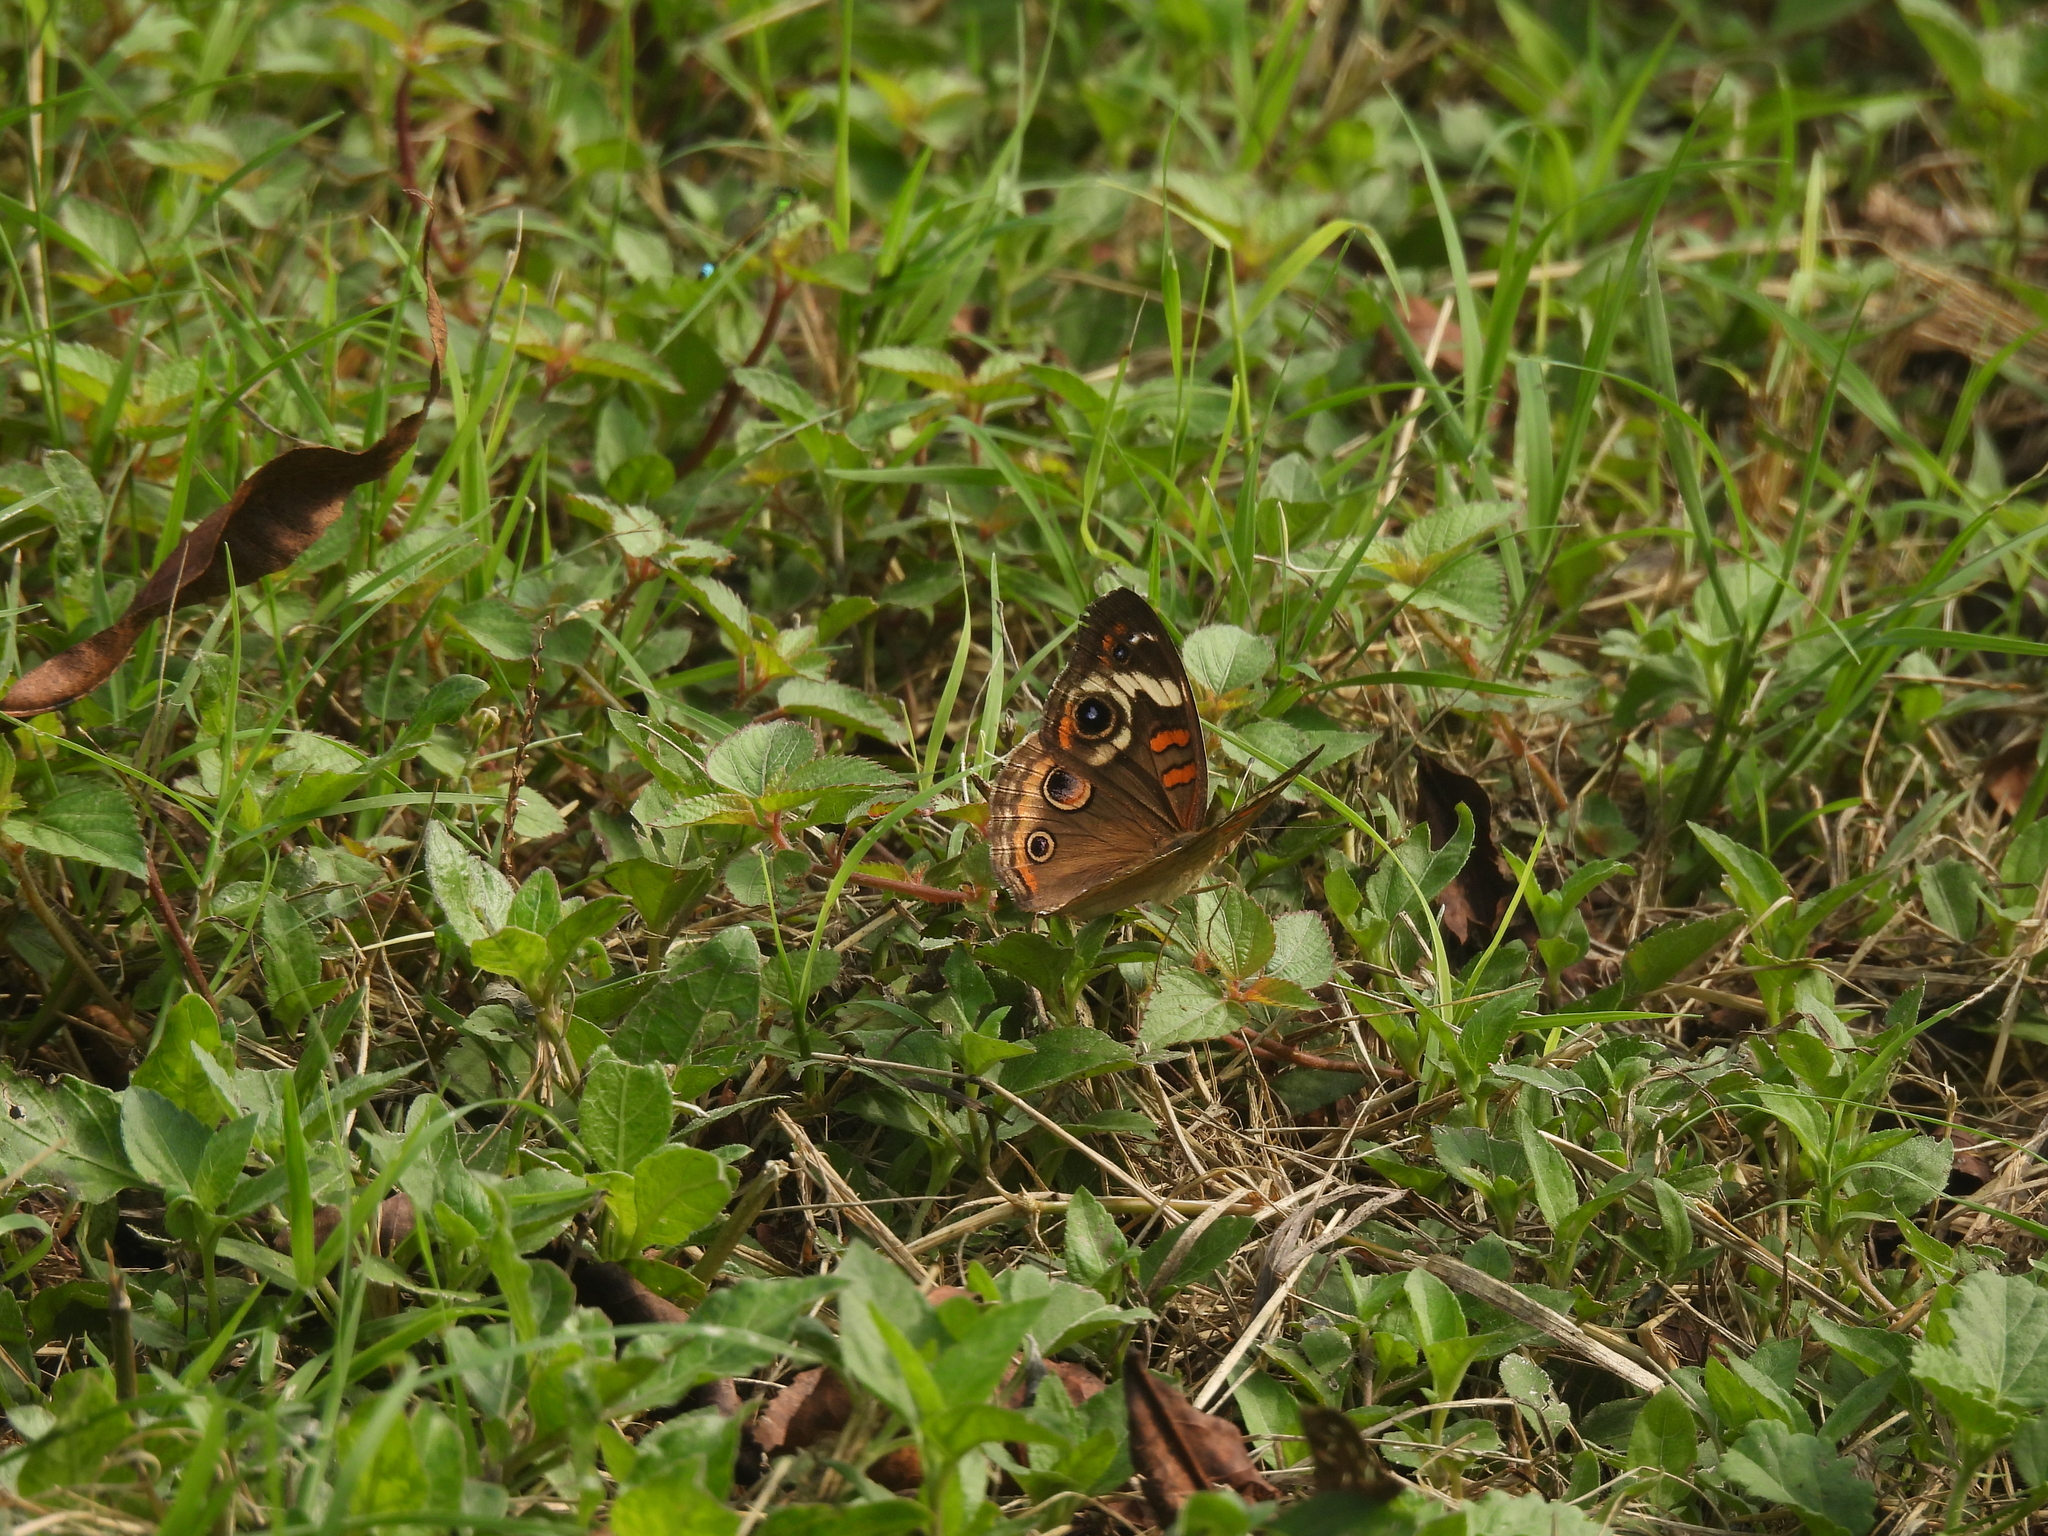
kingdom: Animalia
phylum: Arthropoda
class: Insecta
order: Lepidoptera
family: Nymphalidae
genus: Junonia
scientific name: Junonia coenia
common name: Common buckeye
